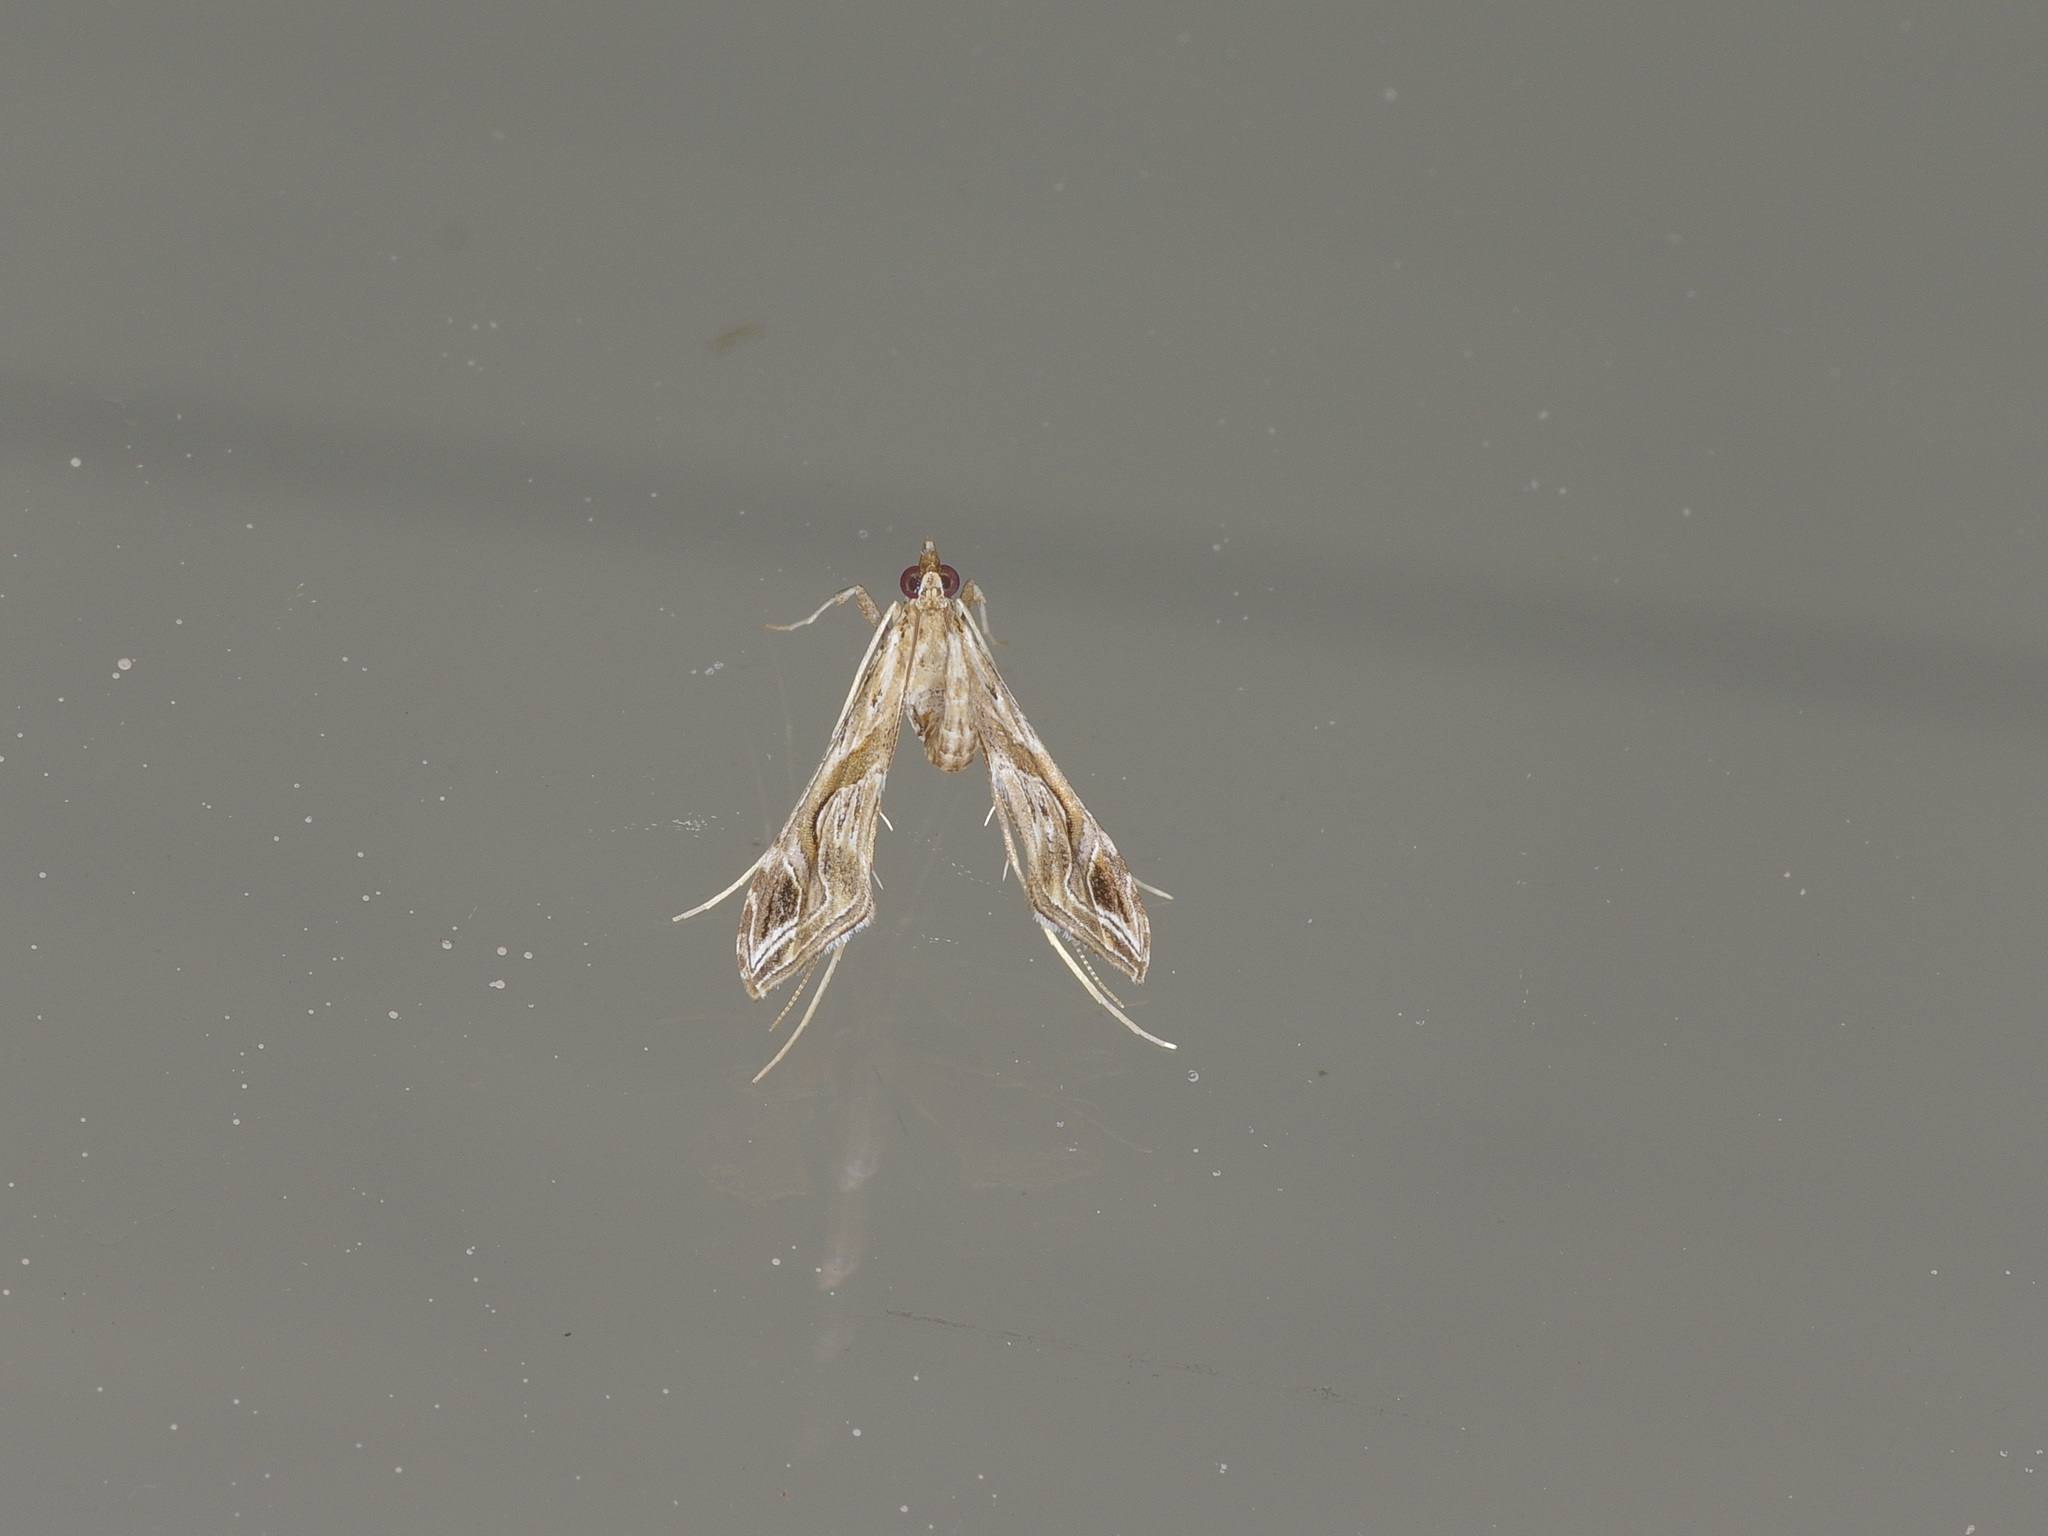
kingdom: Animalia
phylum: Arthropoda
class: Insecta
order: Lepidoptera
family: Crambidae
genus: Lineodes
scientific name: Lineodes integra
